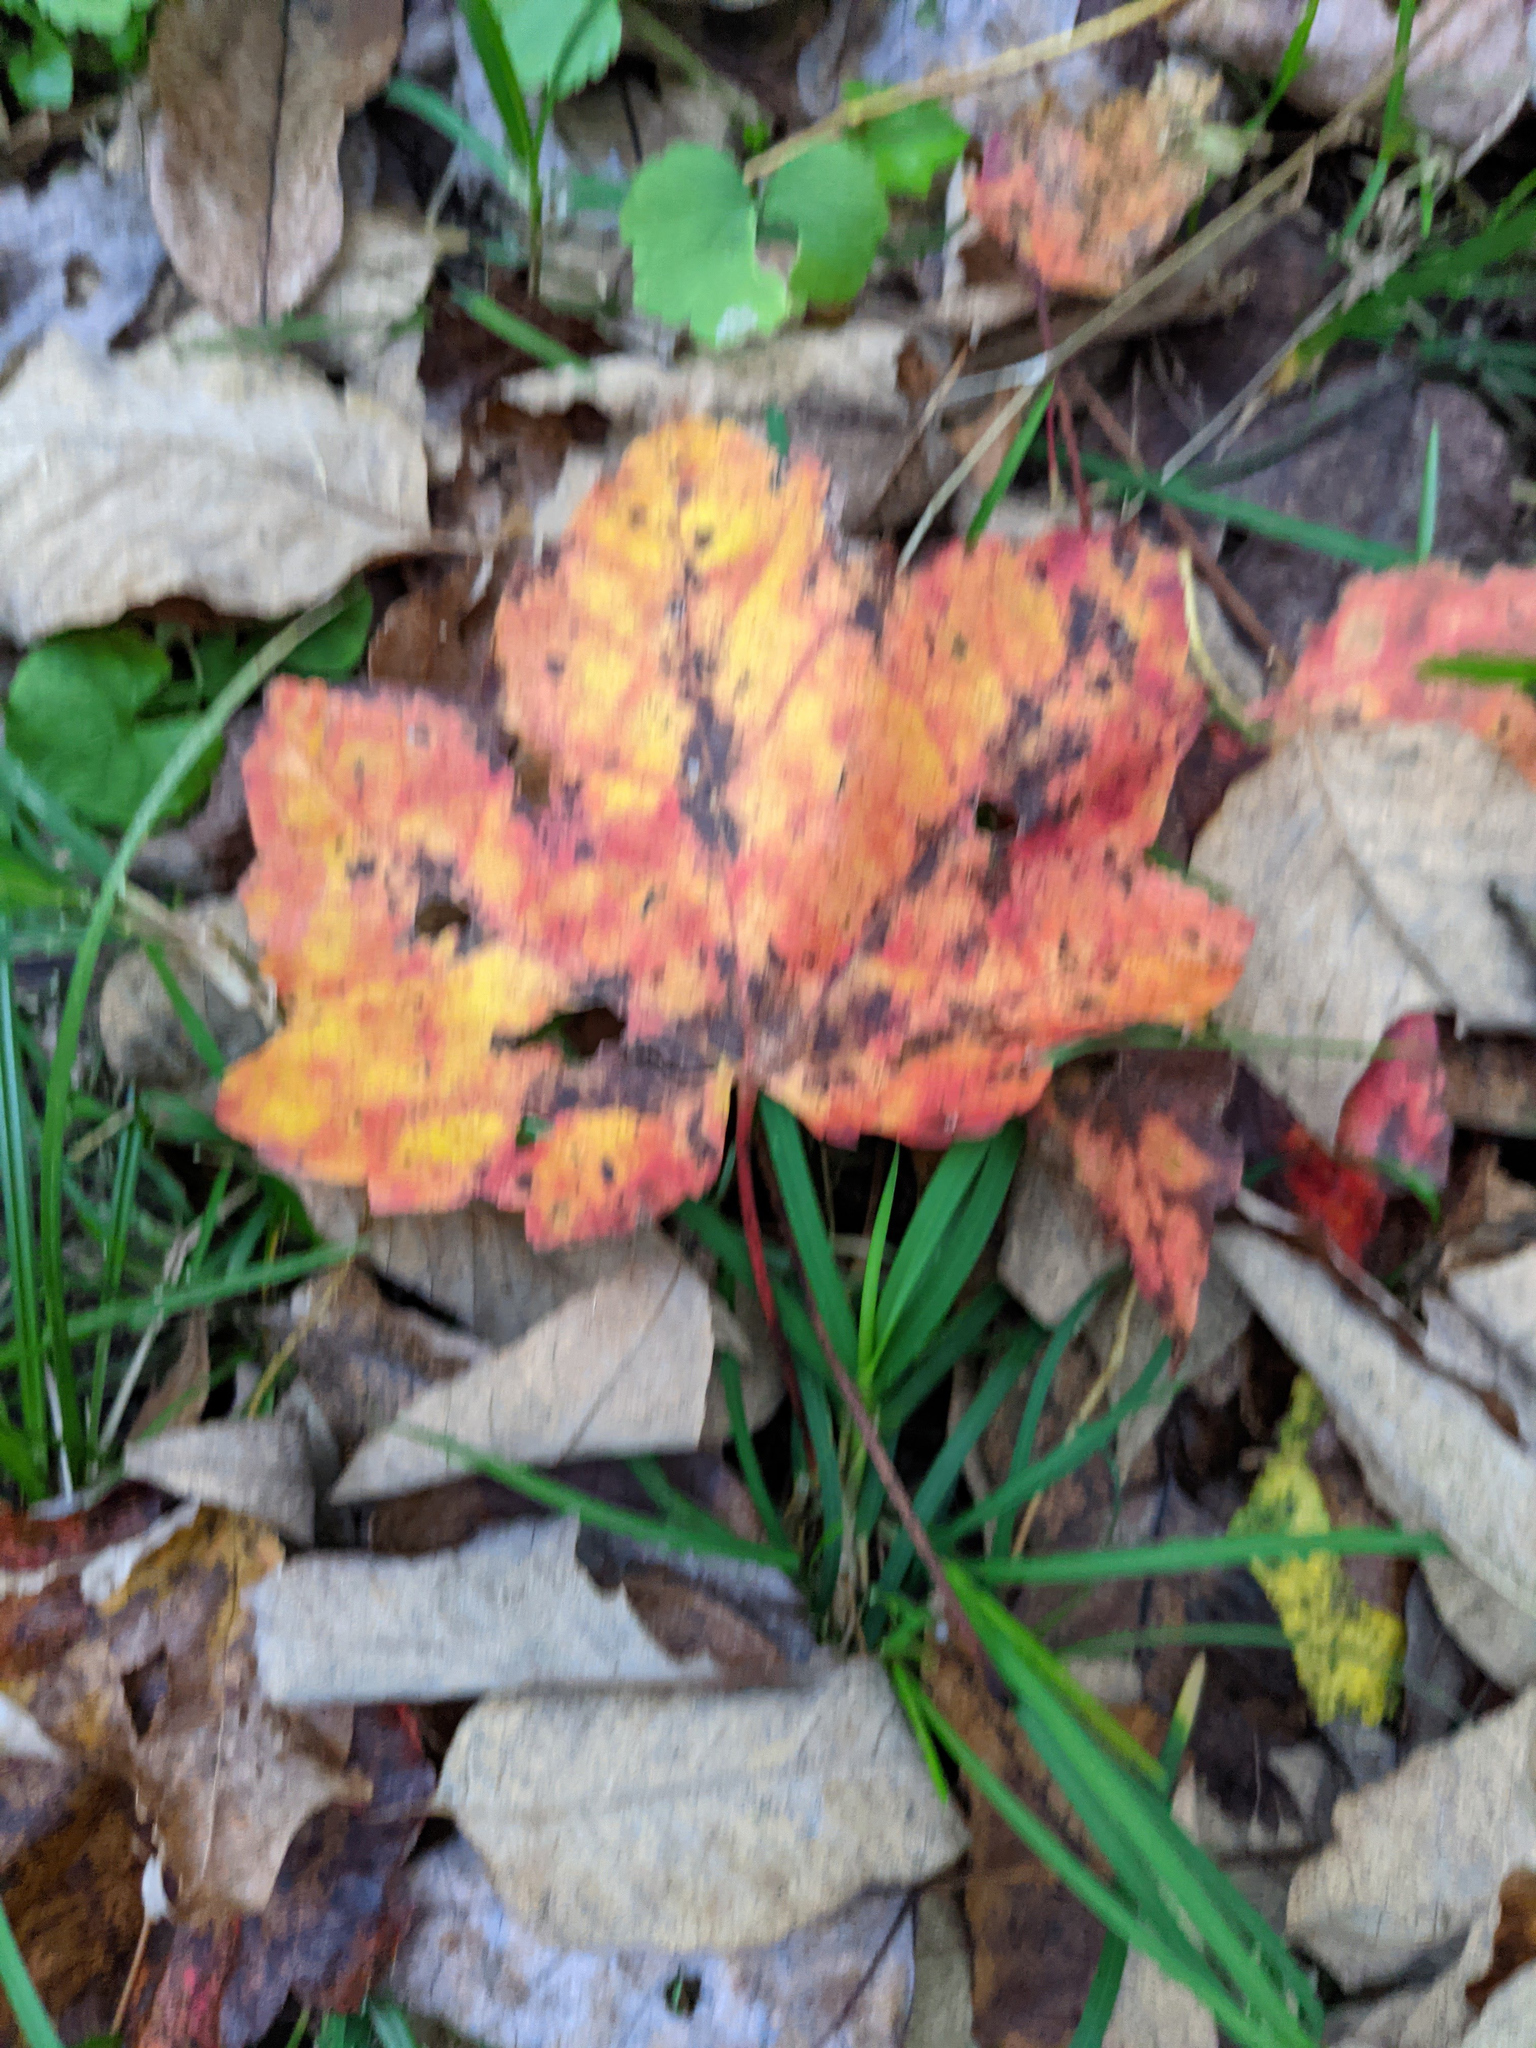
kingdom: Plantae
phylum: Tracheophyta
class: Magnoliopsida
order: Sapindales
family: Sapindaceae
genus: Acer
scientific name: Acer rubrum
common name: Red maple
